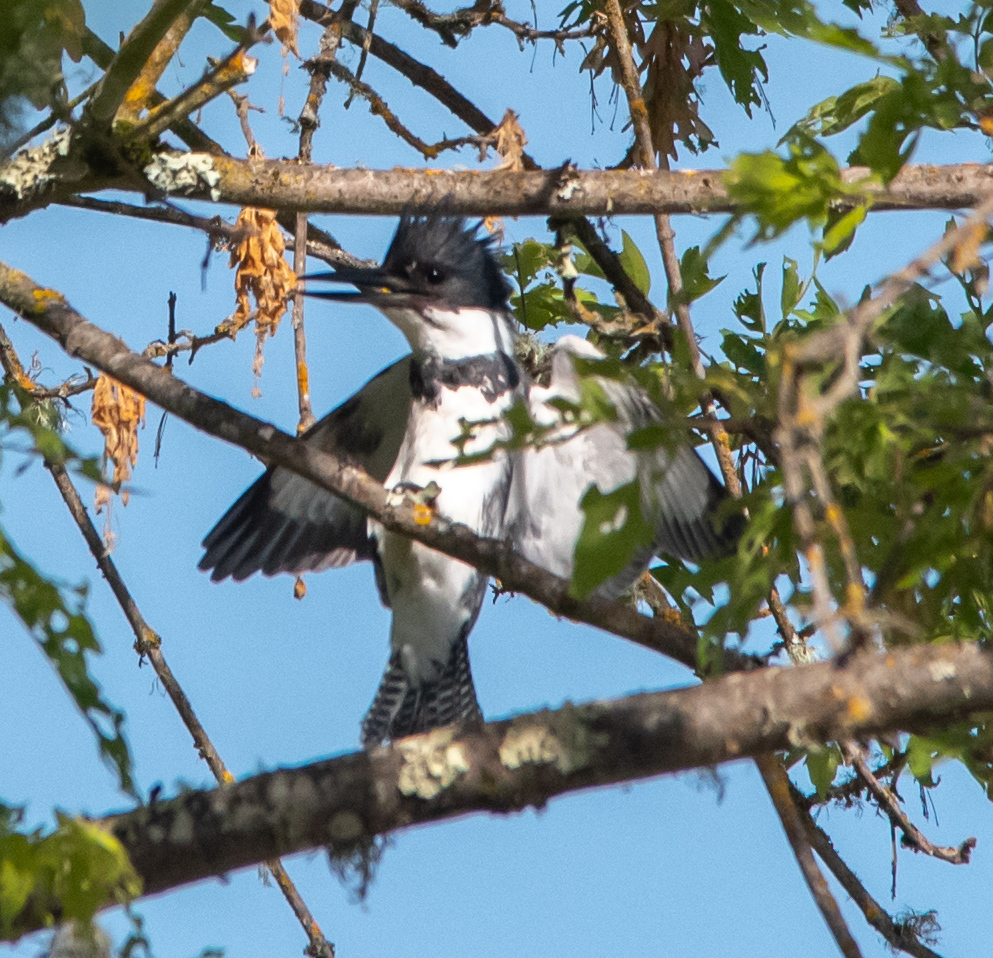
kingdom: Animalia
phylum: Chordata
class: Aves
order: Coraciiformes
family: Alcedinidae
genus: Megaceryle
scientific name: Megaceryle alcyon
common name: Belted kingfisher
